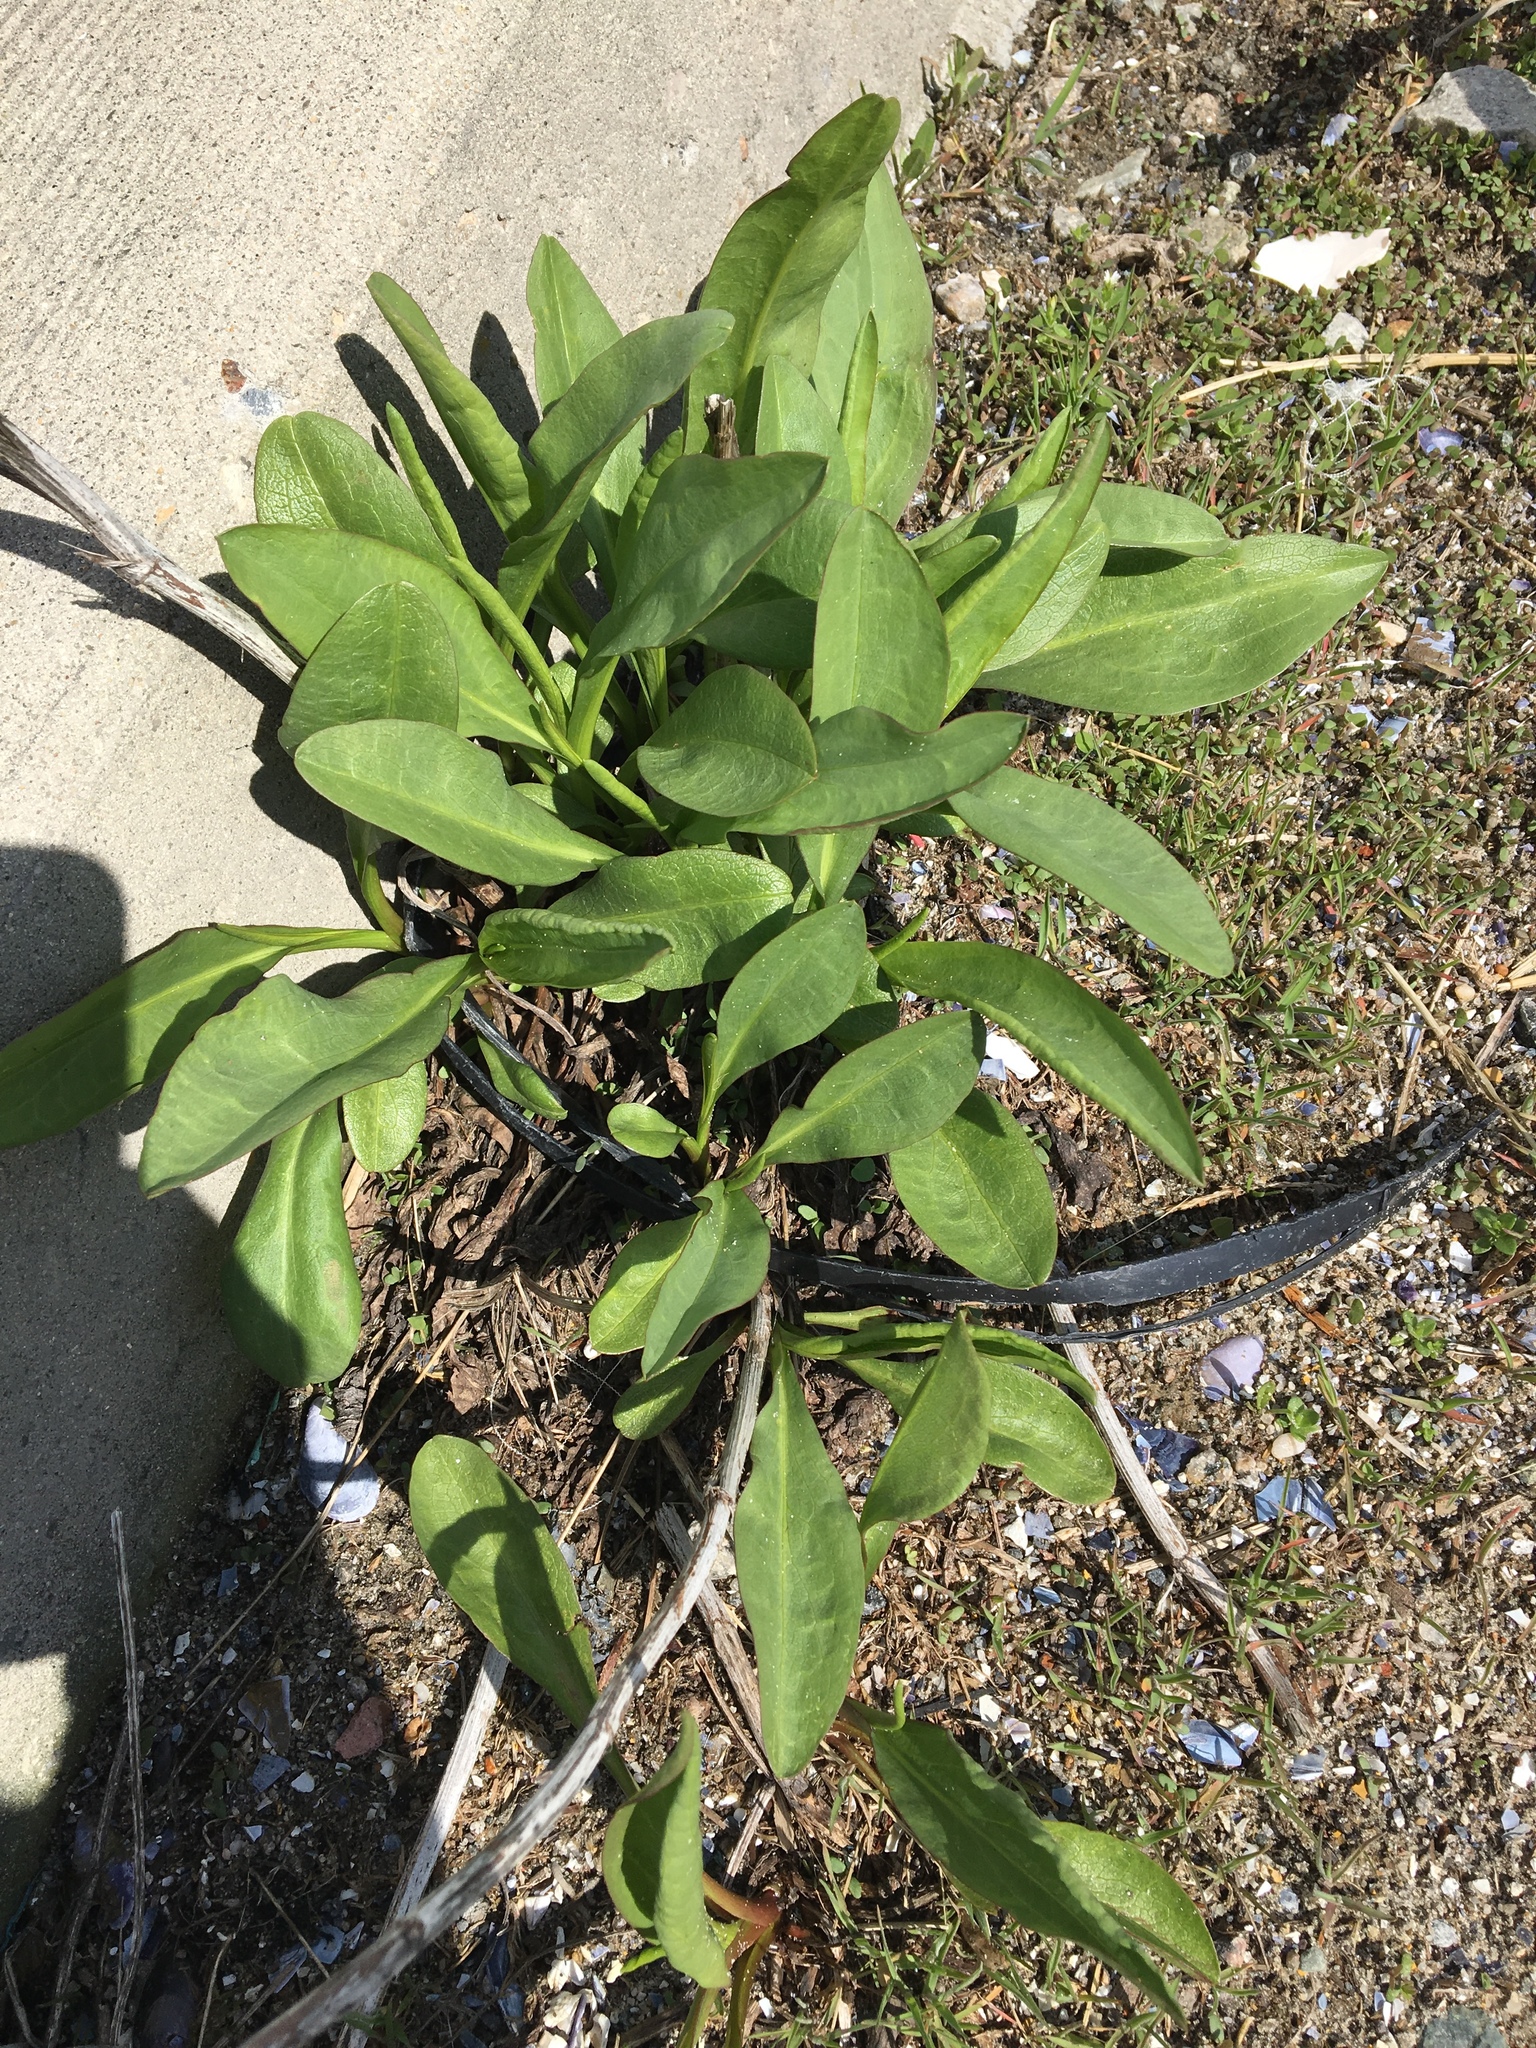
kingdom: Plantae
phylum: Tracheophyta
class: Magnoliopsida
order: Asterales
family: Asteraceae
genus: Solidago
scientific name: Solidago sempervirens
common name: Salt-marsh goldenrod
